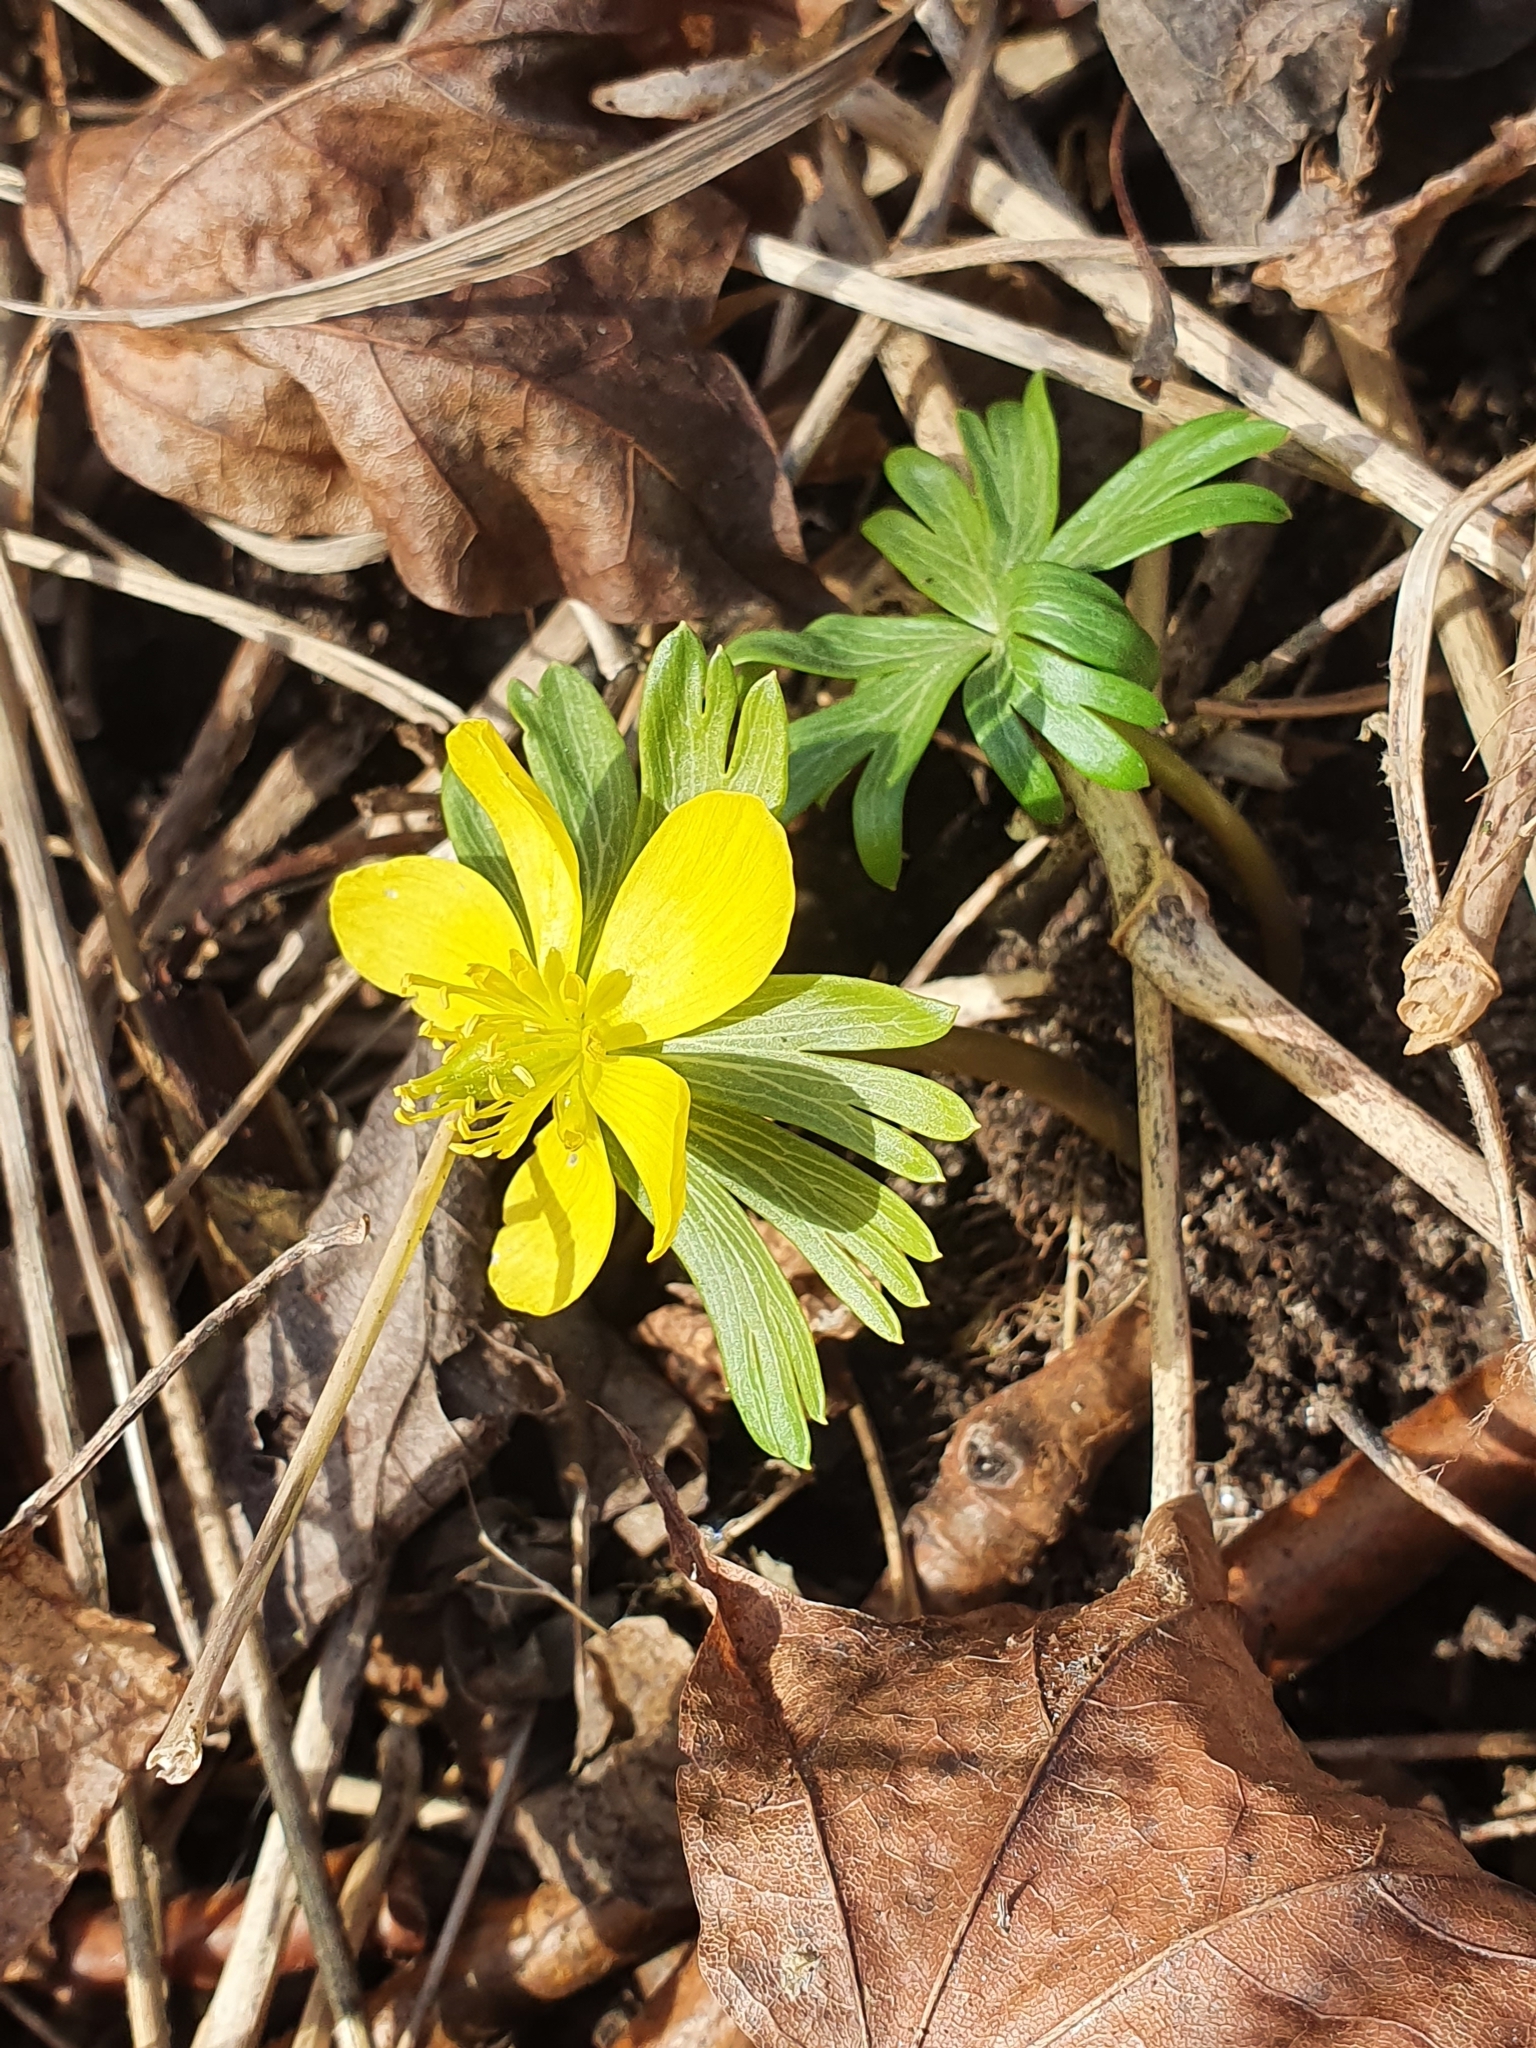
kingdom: Plantae
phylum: Tracheophyta
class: Magnoliopsida
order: Ranunculales
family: Ranunculaceae
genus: Eranthis
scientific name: Eranthis hyemalis
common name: Winter aconite
